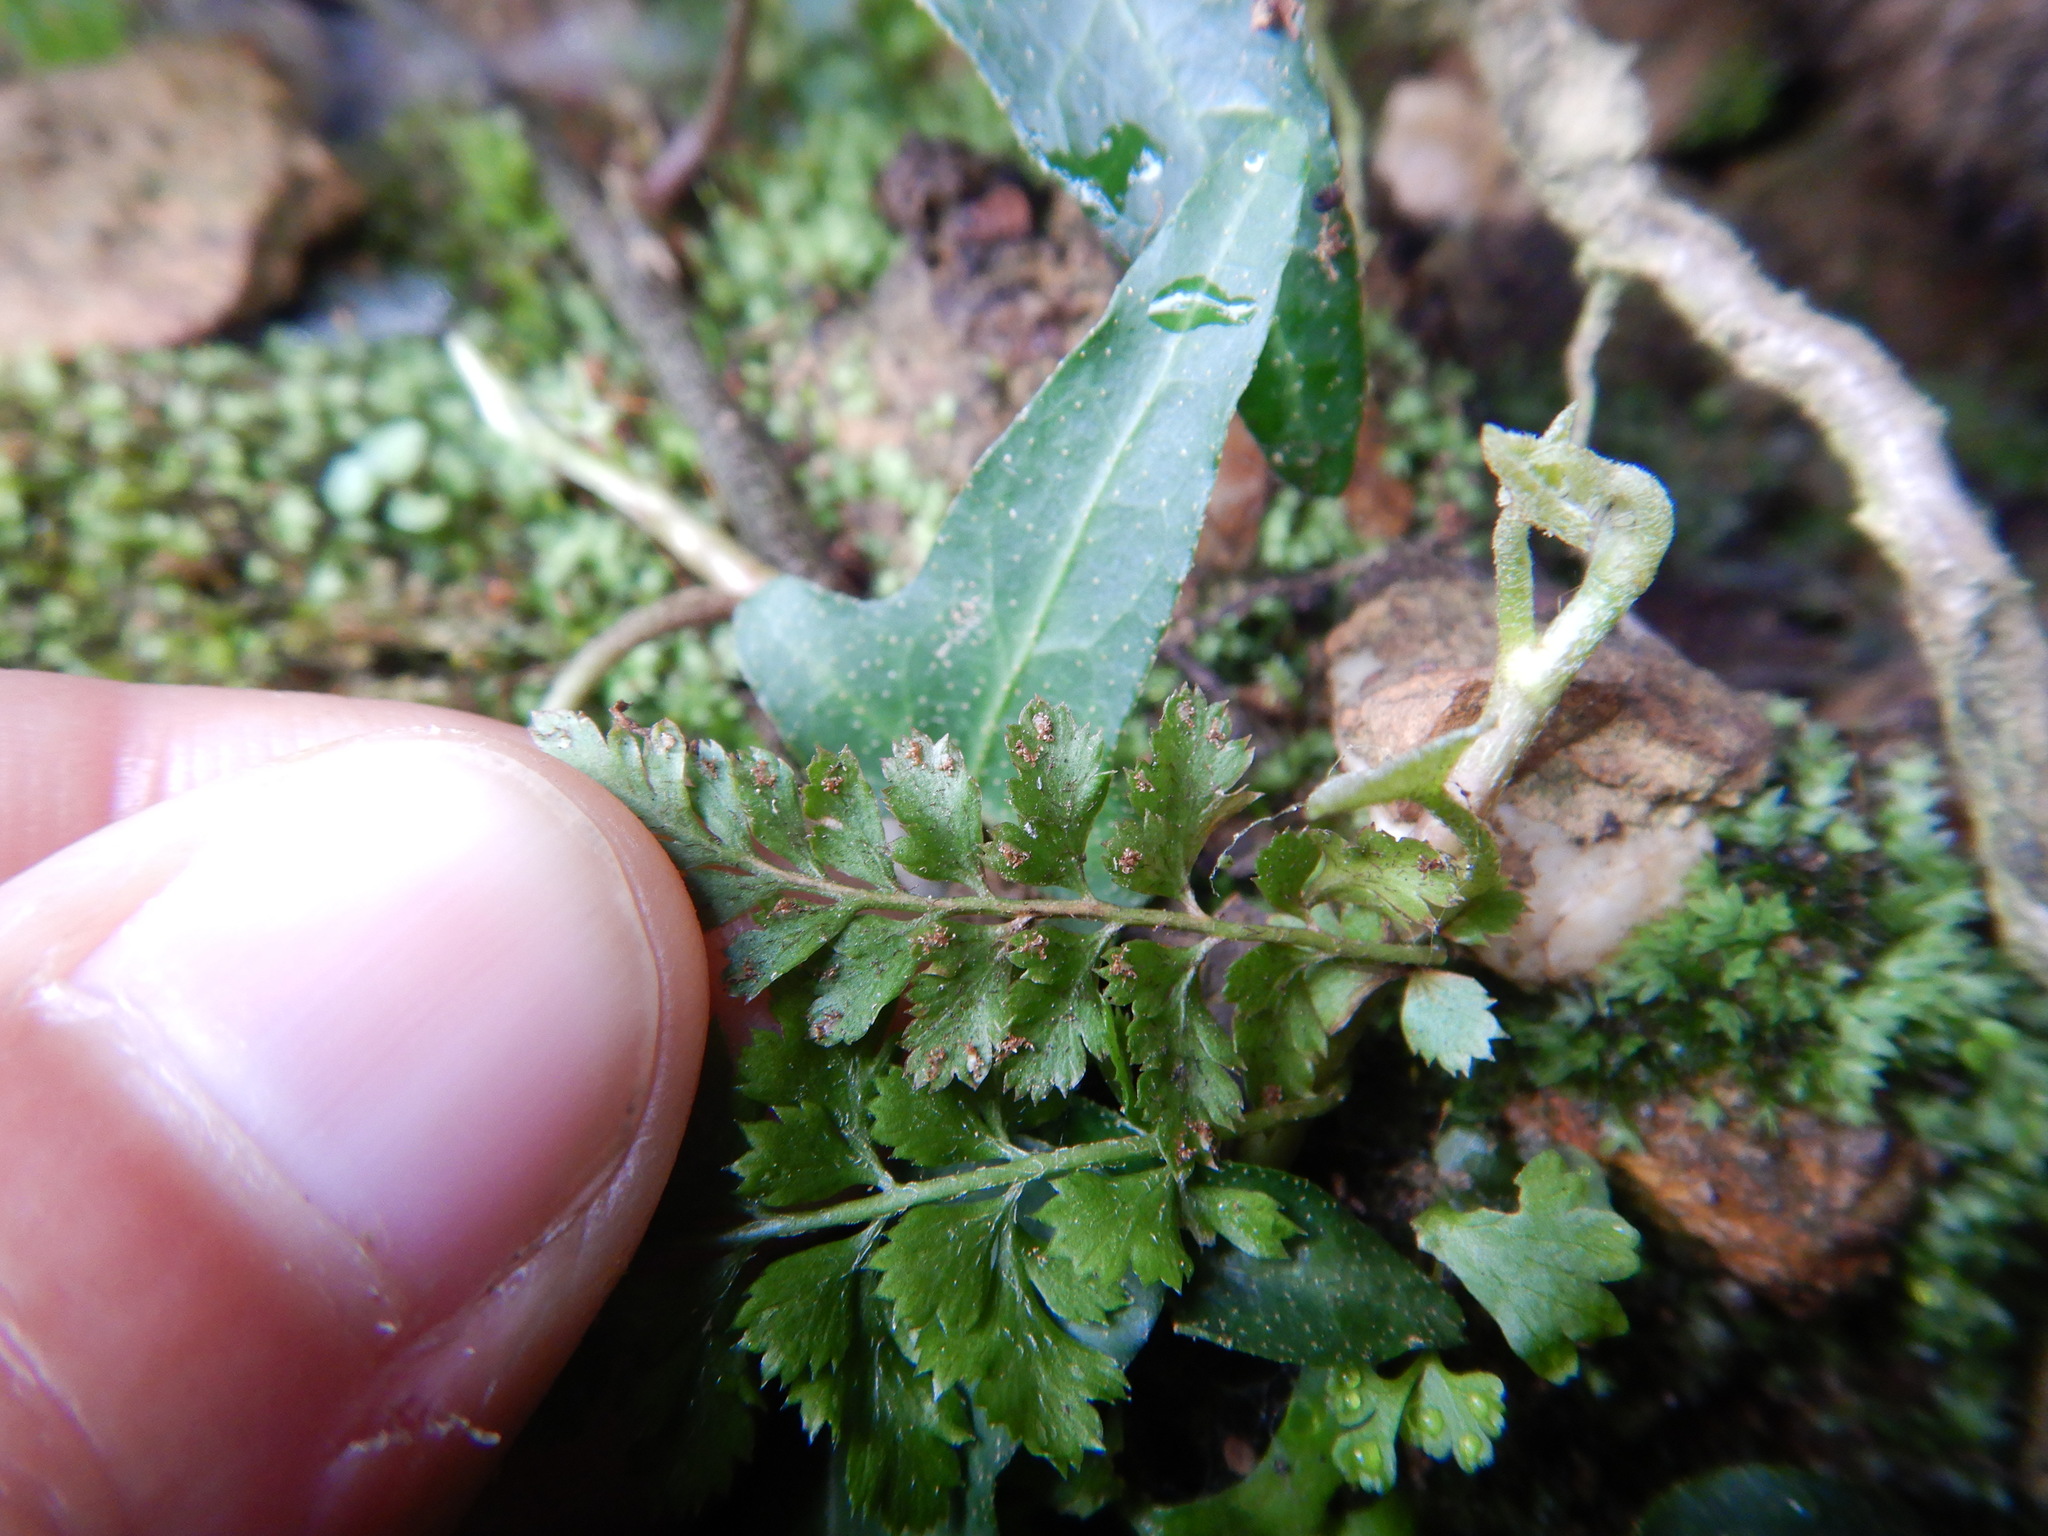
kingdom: Plantae
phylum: Tracheophyta
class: Polypodiopsida
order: Polypodiales
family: Aspleniaceae
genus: Asplenium
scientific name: Asplenium obovatum
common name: Lanceolate spleenwort
